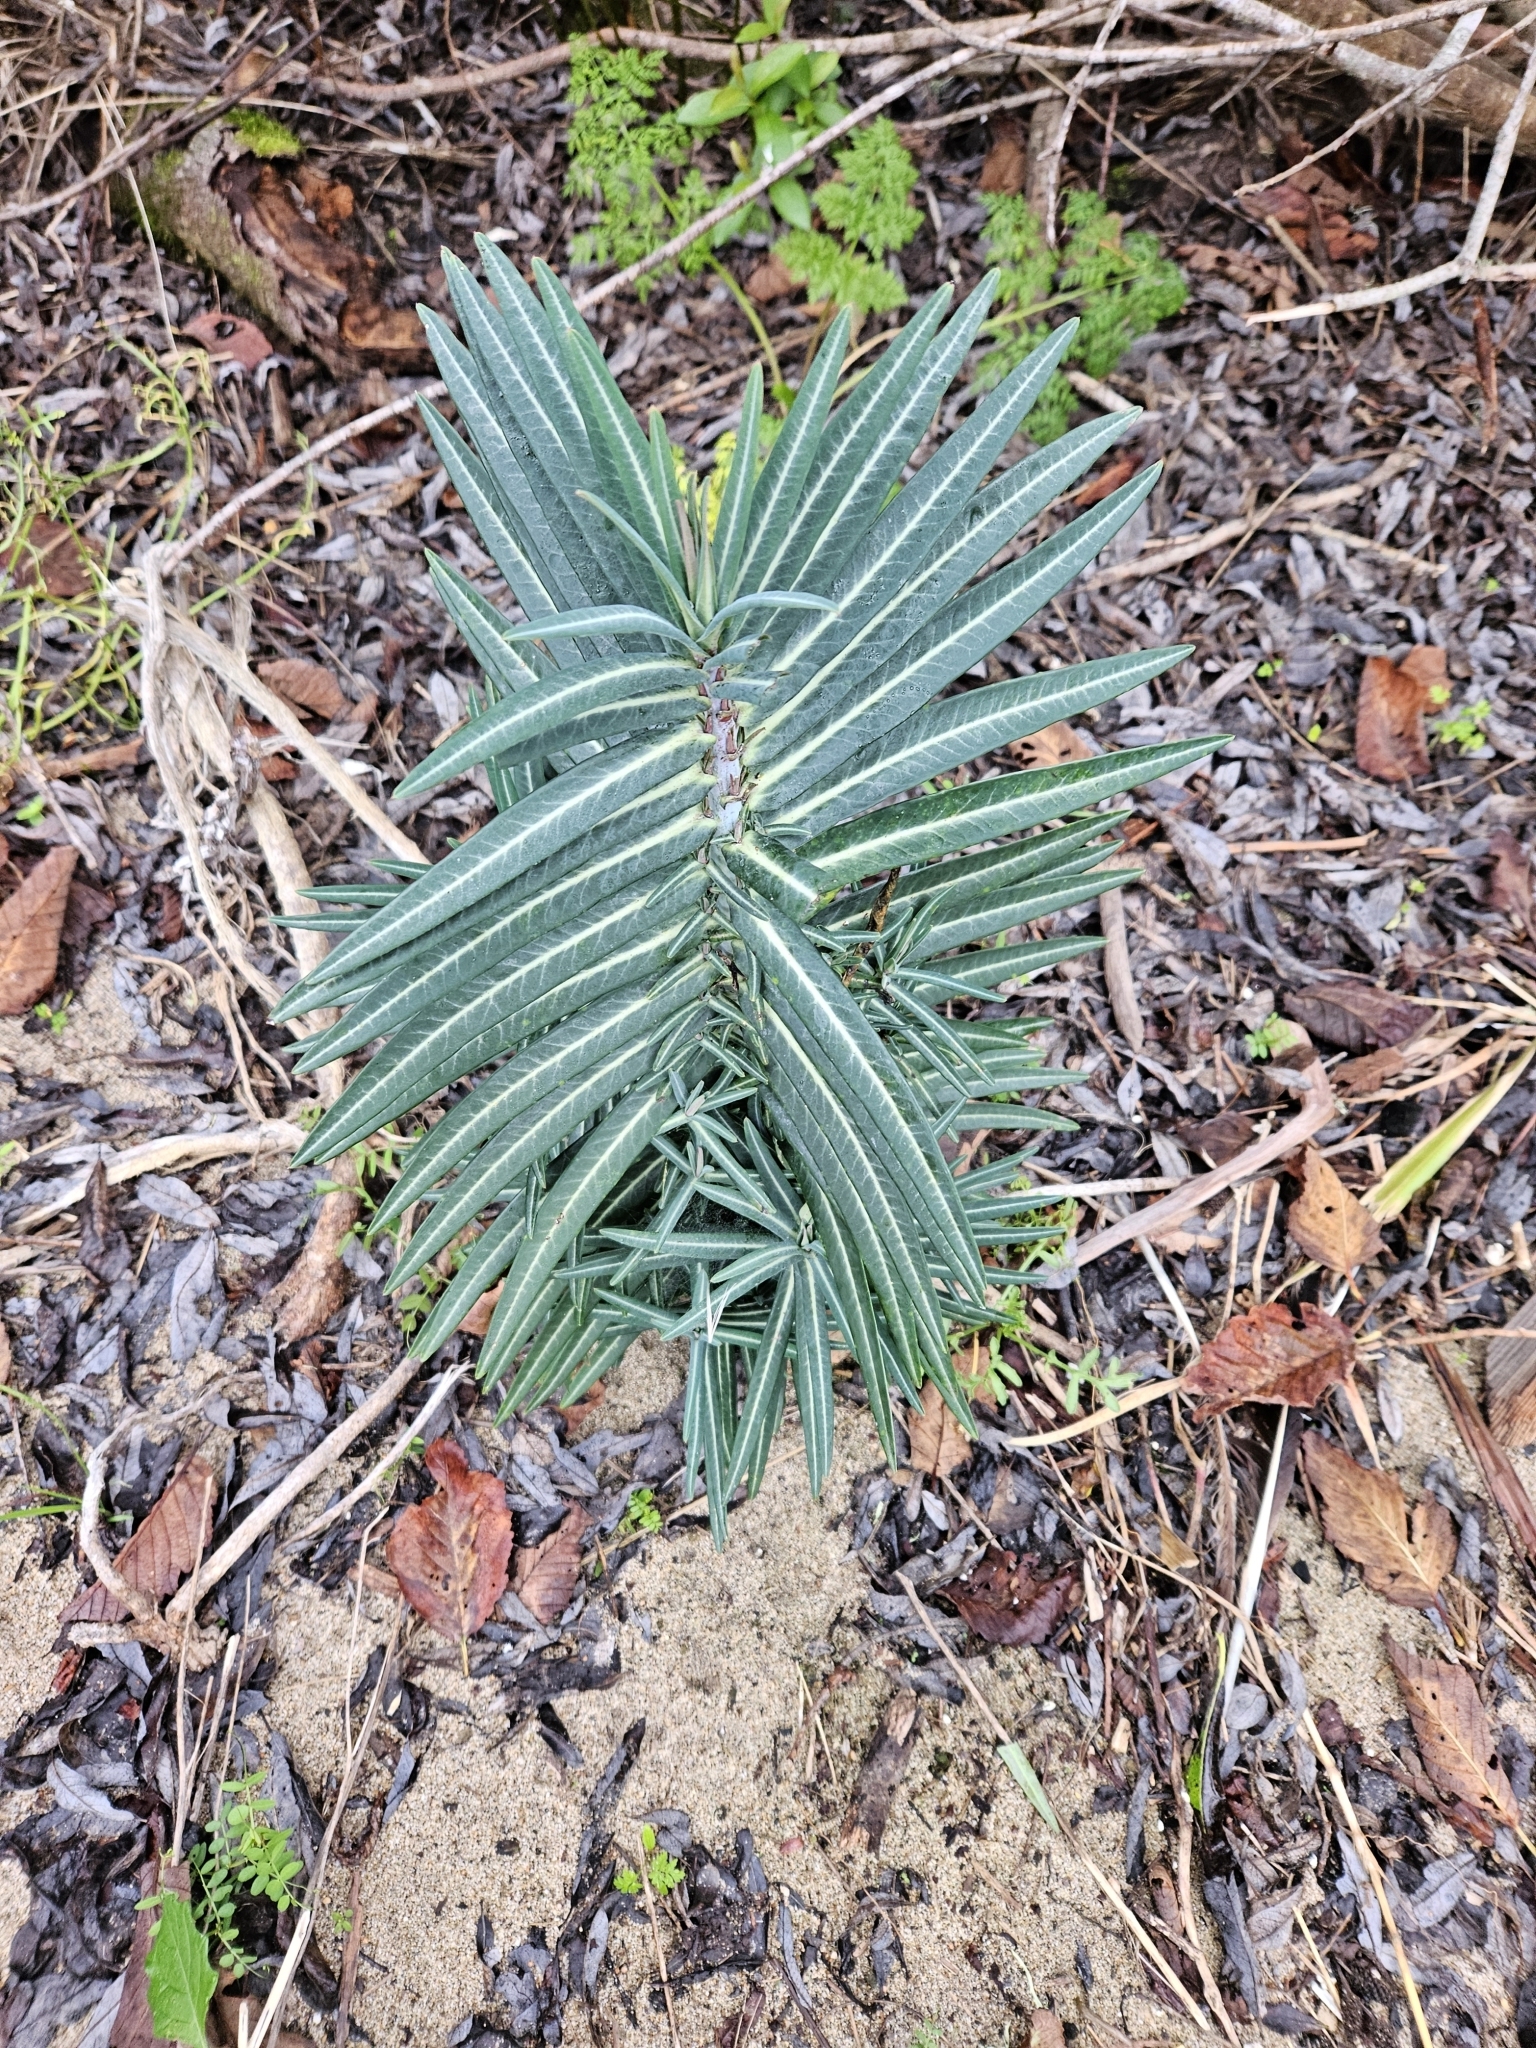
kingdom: Plantae
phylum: Tracheophyta
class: Magnoliopsida
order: Malpighiales
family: Euphorbiaceae
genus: Euphorbia
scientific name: Euphorbia lathyris
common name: Caper spurge
